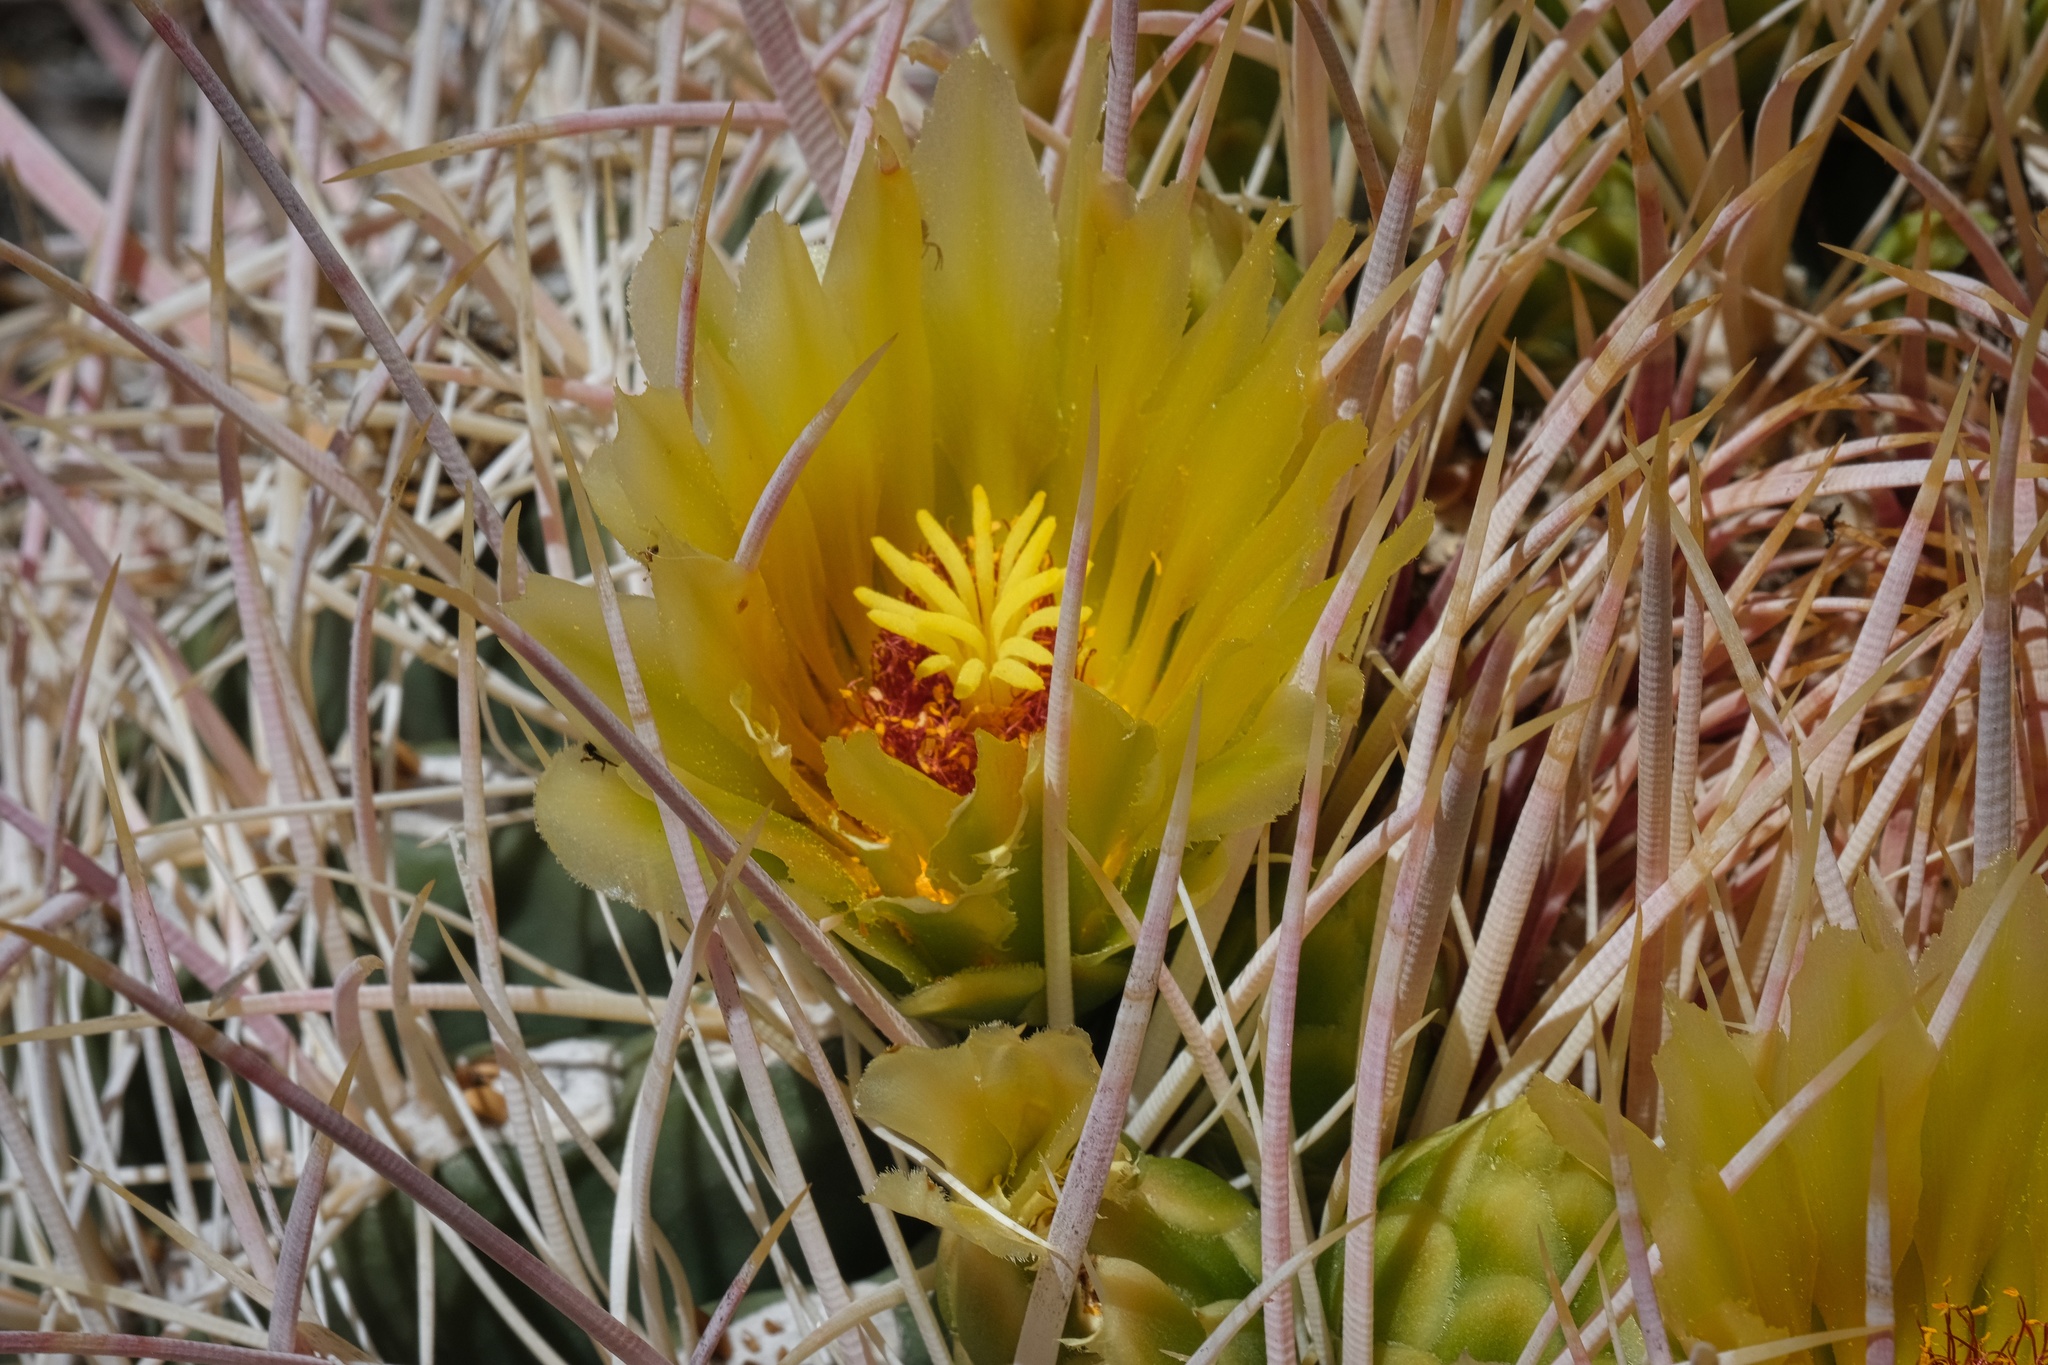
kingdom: Plantae
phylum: Tracheophyta
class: Magnoliopsida
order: Caryophyllales
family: Cactaceae
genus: Ferocactus
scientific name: Ferocactus cylindraceus
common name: California barrel cactus
